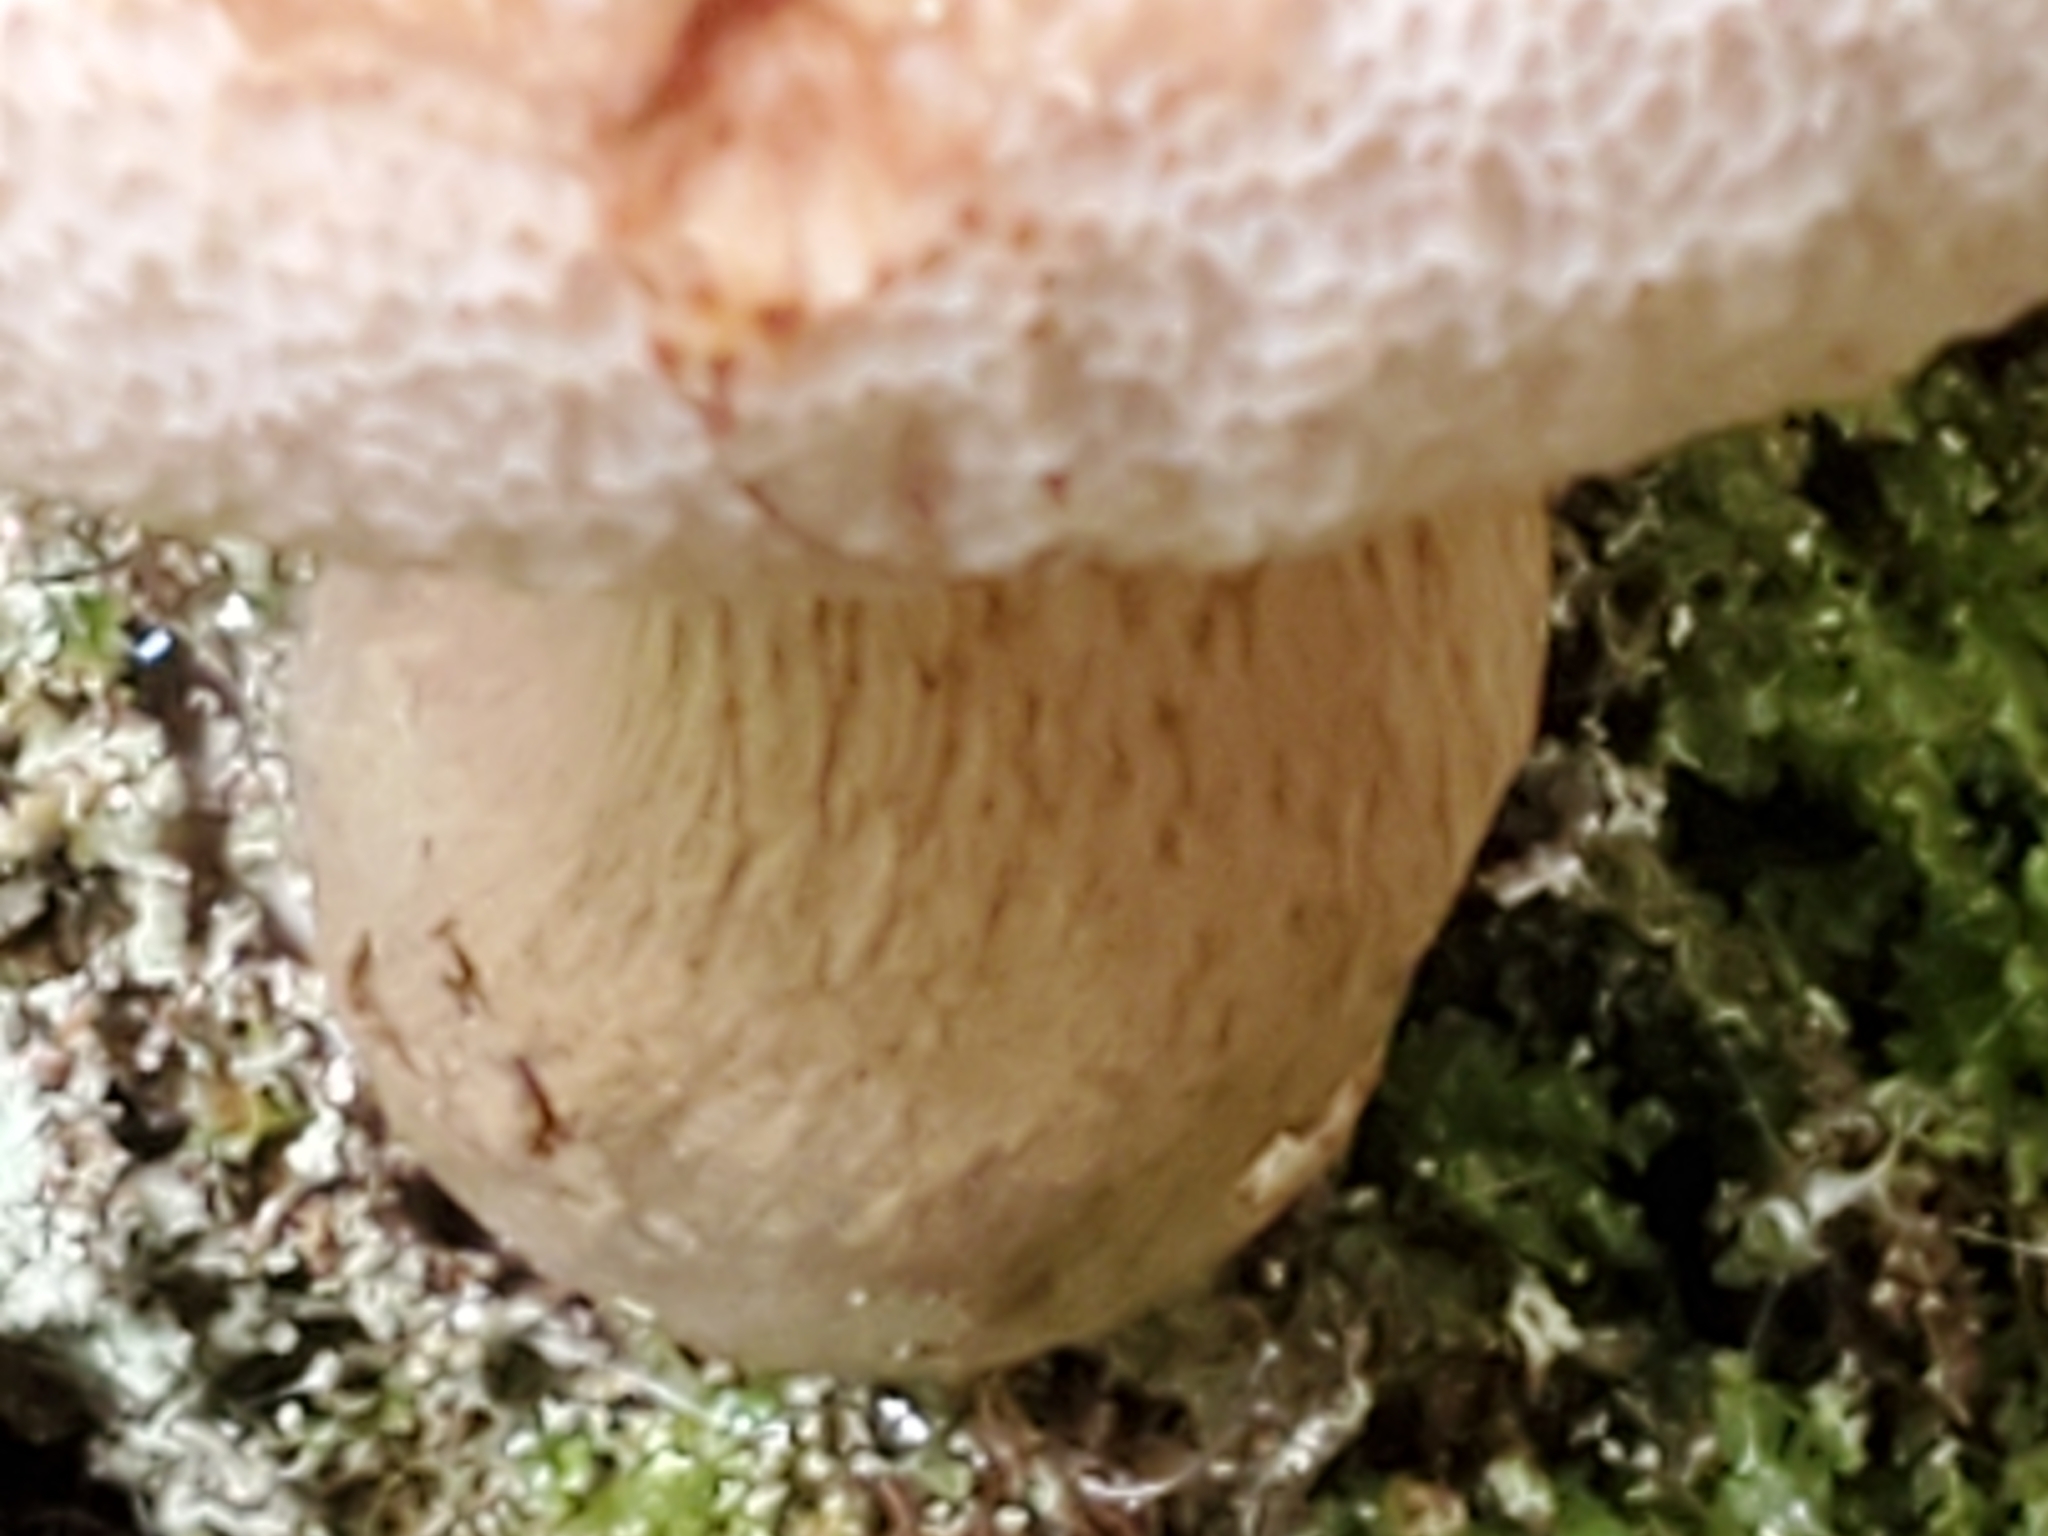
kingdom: Fungi
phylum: Basidiomycota
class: Agaricomycetes
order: Boletales
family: Boletaceae
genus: Tylopilus
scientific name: Tylopilus felleus
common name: Bitter bolete
